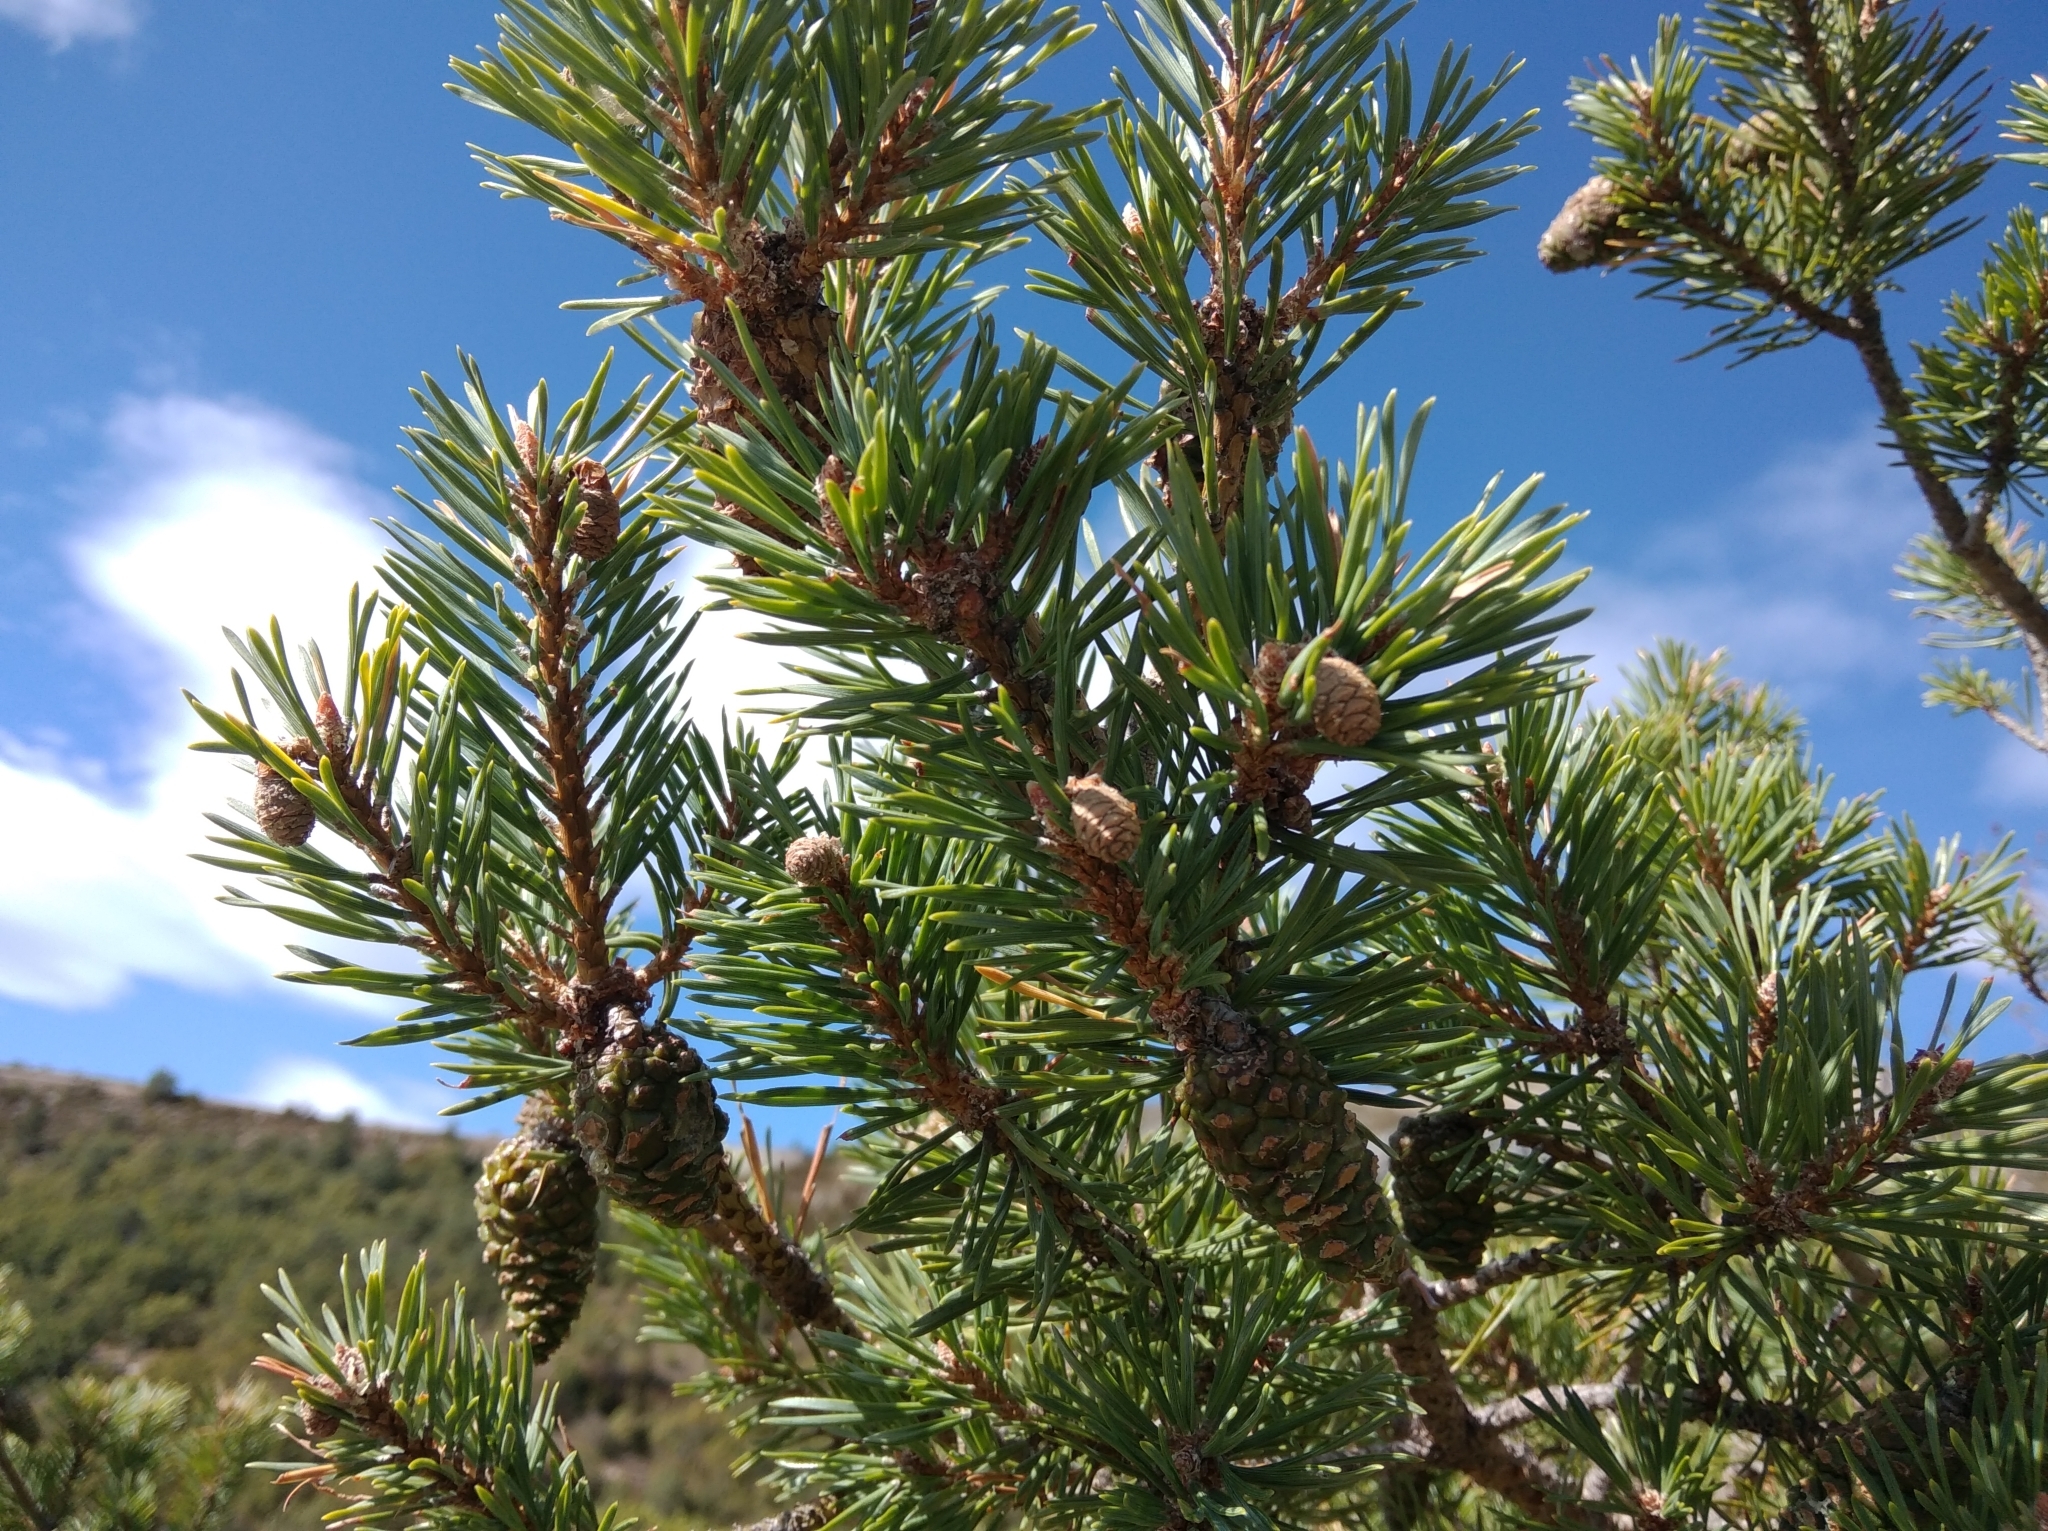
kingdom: Plantae
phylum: Tracheophyta
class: Pinopsida
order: Pinales
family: Pinaceae
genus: Pinus
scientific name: Pinus sylvestris
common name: Scots pine
